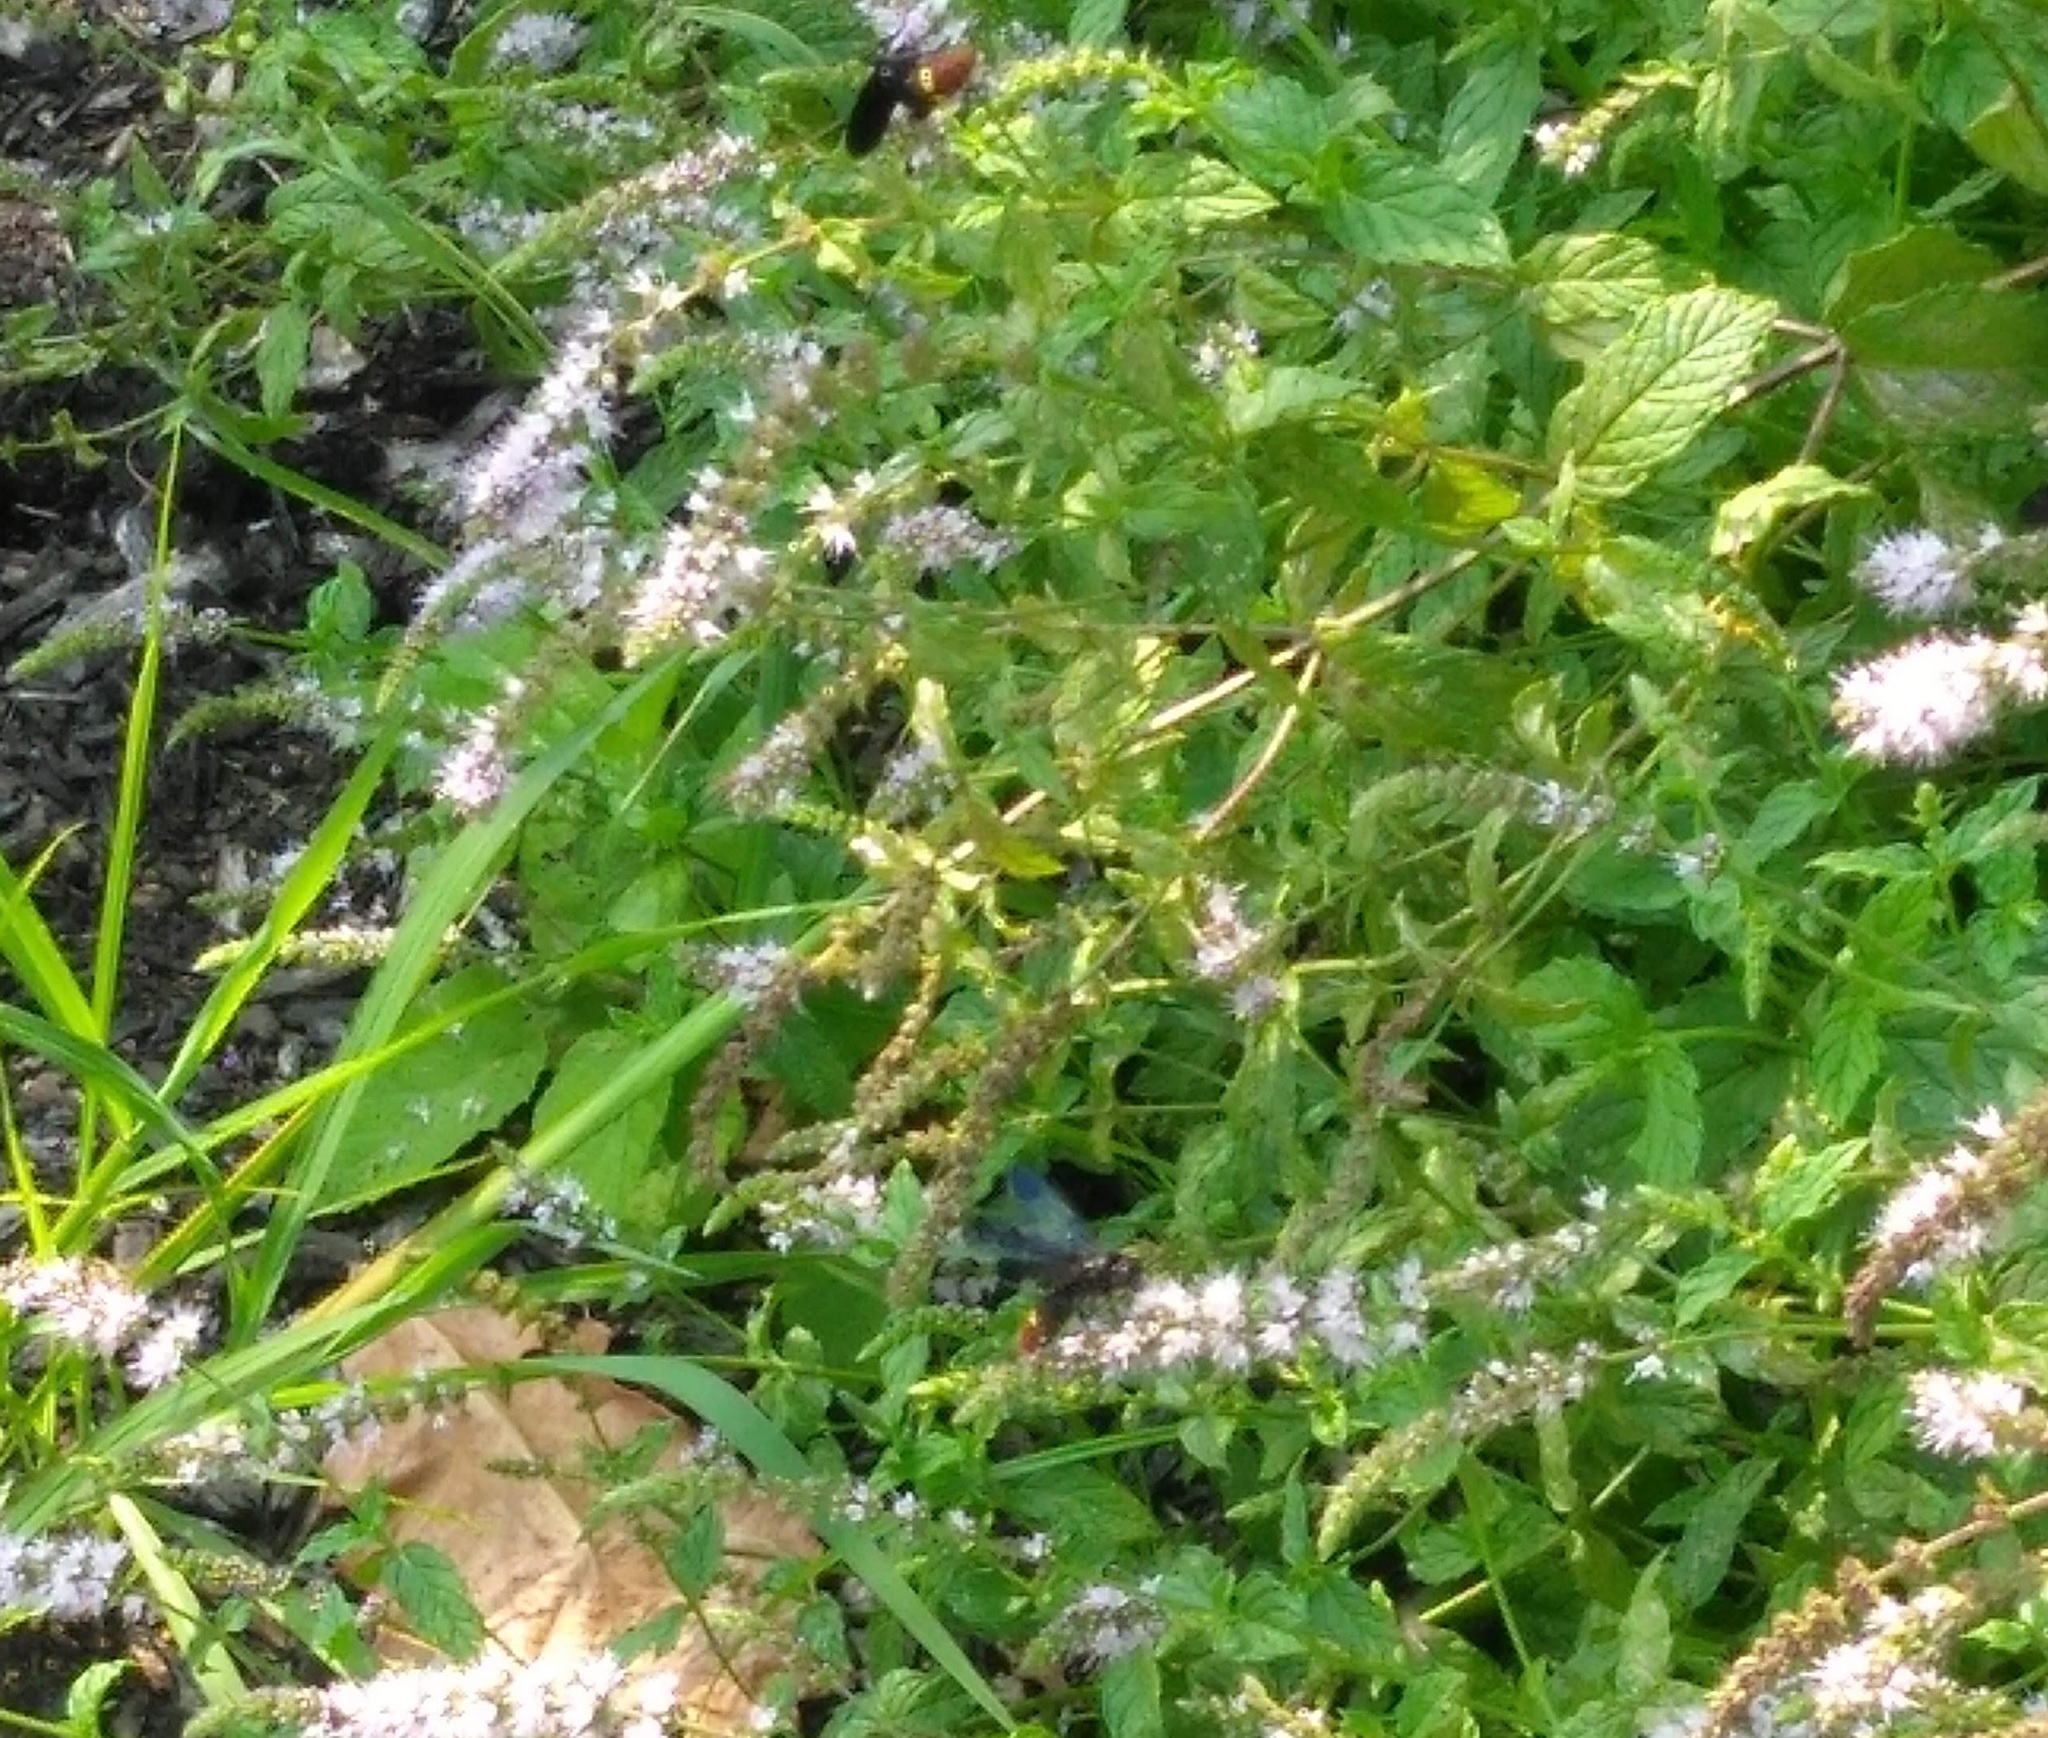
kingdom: Animalia
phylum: Arthropoda
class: Insecta
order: Hymenoptera
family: Scoliidae
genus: Scolia
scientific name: Scolia dubia
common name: Blue-winged scoliid wasp
